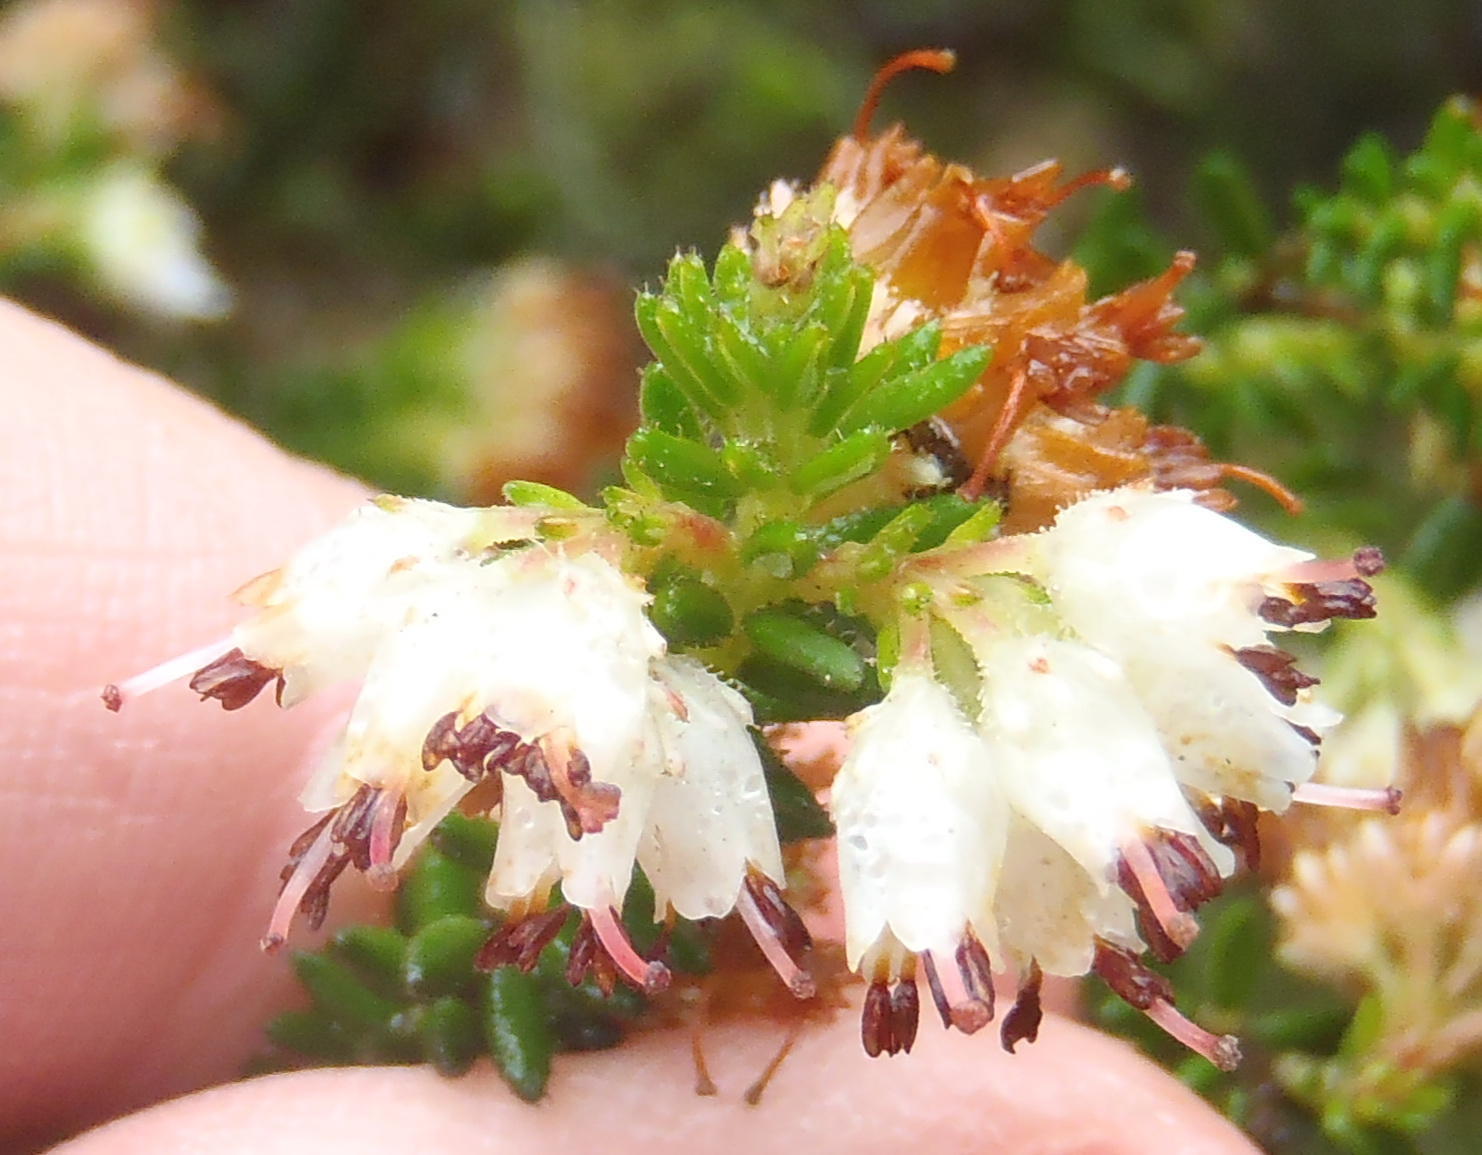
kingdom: Plantae
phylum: Tracheophyta
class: Magnoliopsida
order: Ericales
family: Ericaceae
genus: Erica
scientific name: Erica stylaris
